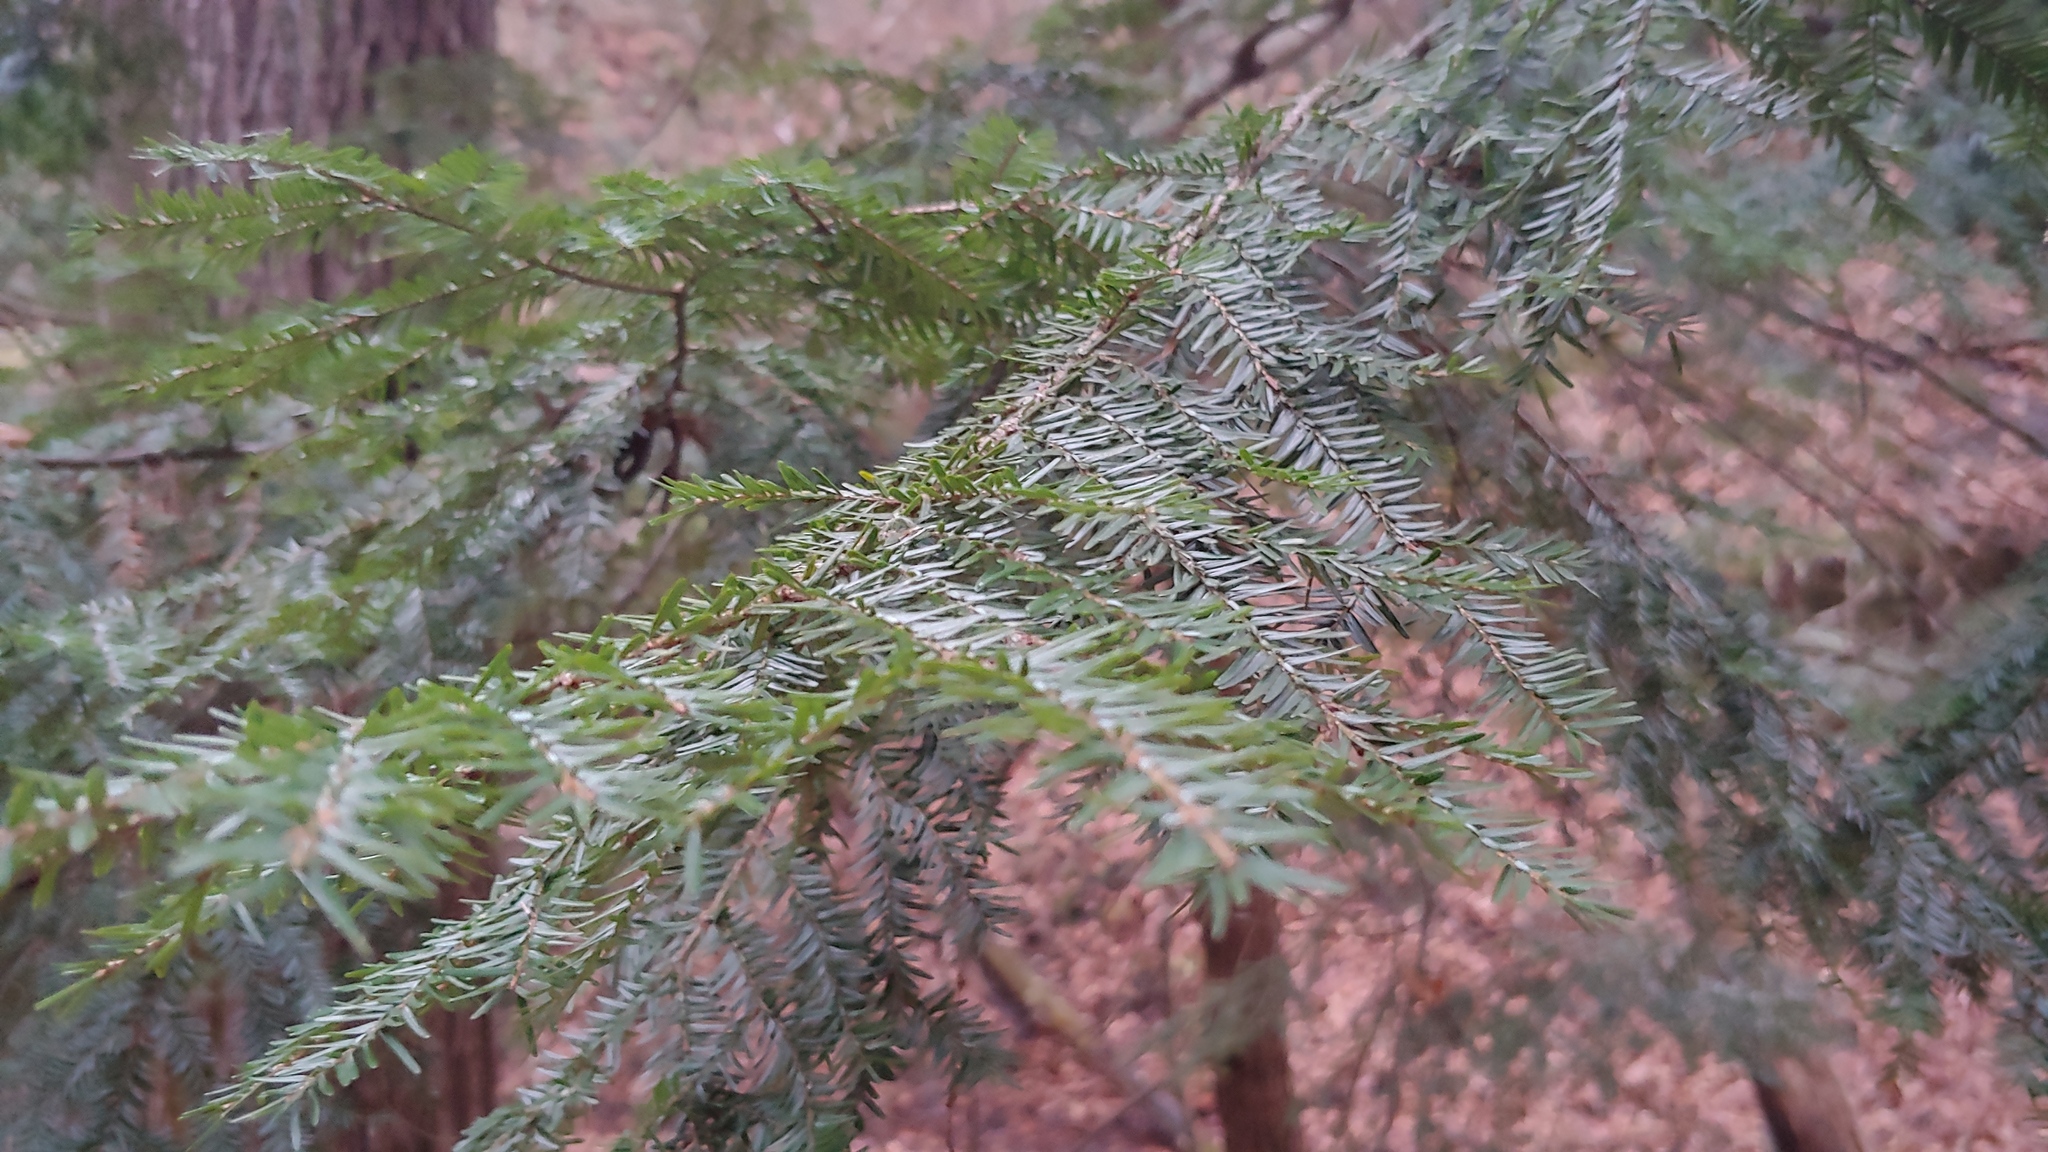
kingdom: Plantae
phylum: Tracheophyta
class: Pinopsida
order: Pinales
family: Pinaceae
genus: Tsuga
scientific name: Tsuga canadensis
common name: Eastern hemlock
